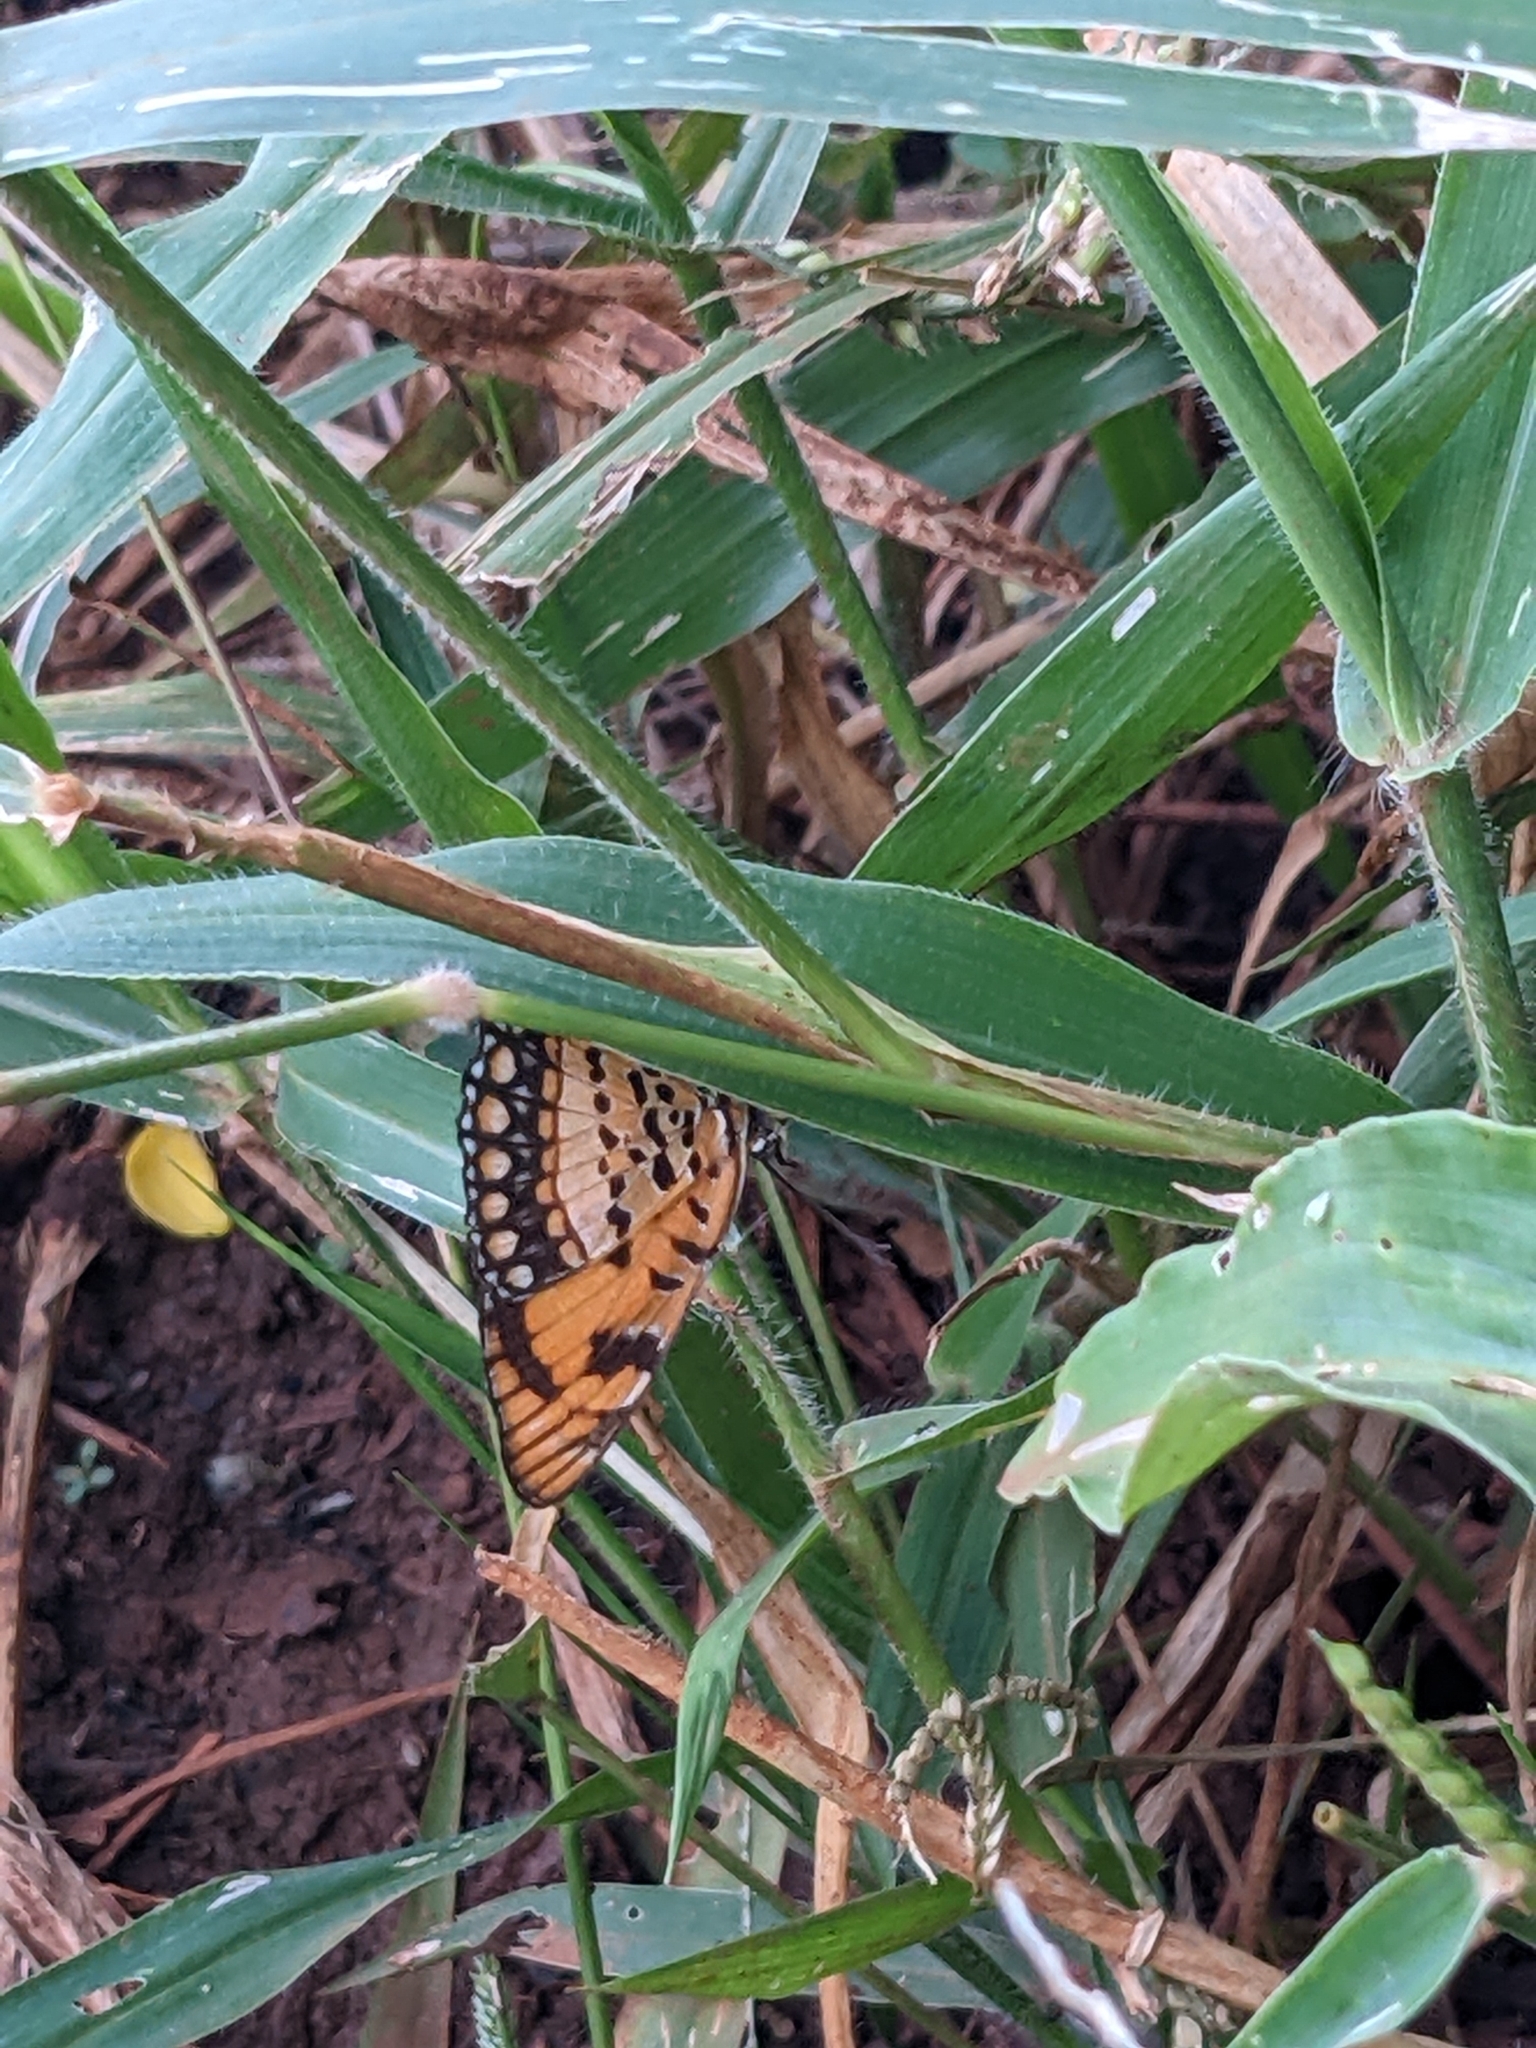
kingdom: Animalia
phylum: Arthropoda
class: Insecta
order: Lepidoptera
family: Nymphalidae
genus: Byblia
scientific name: Byblia anvatara
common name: African joker
